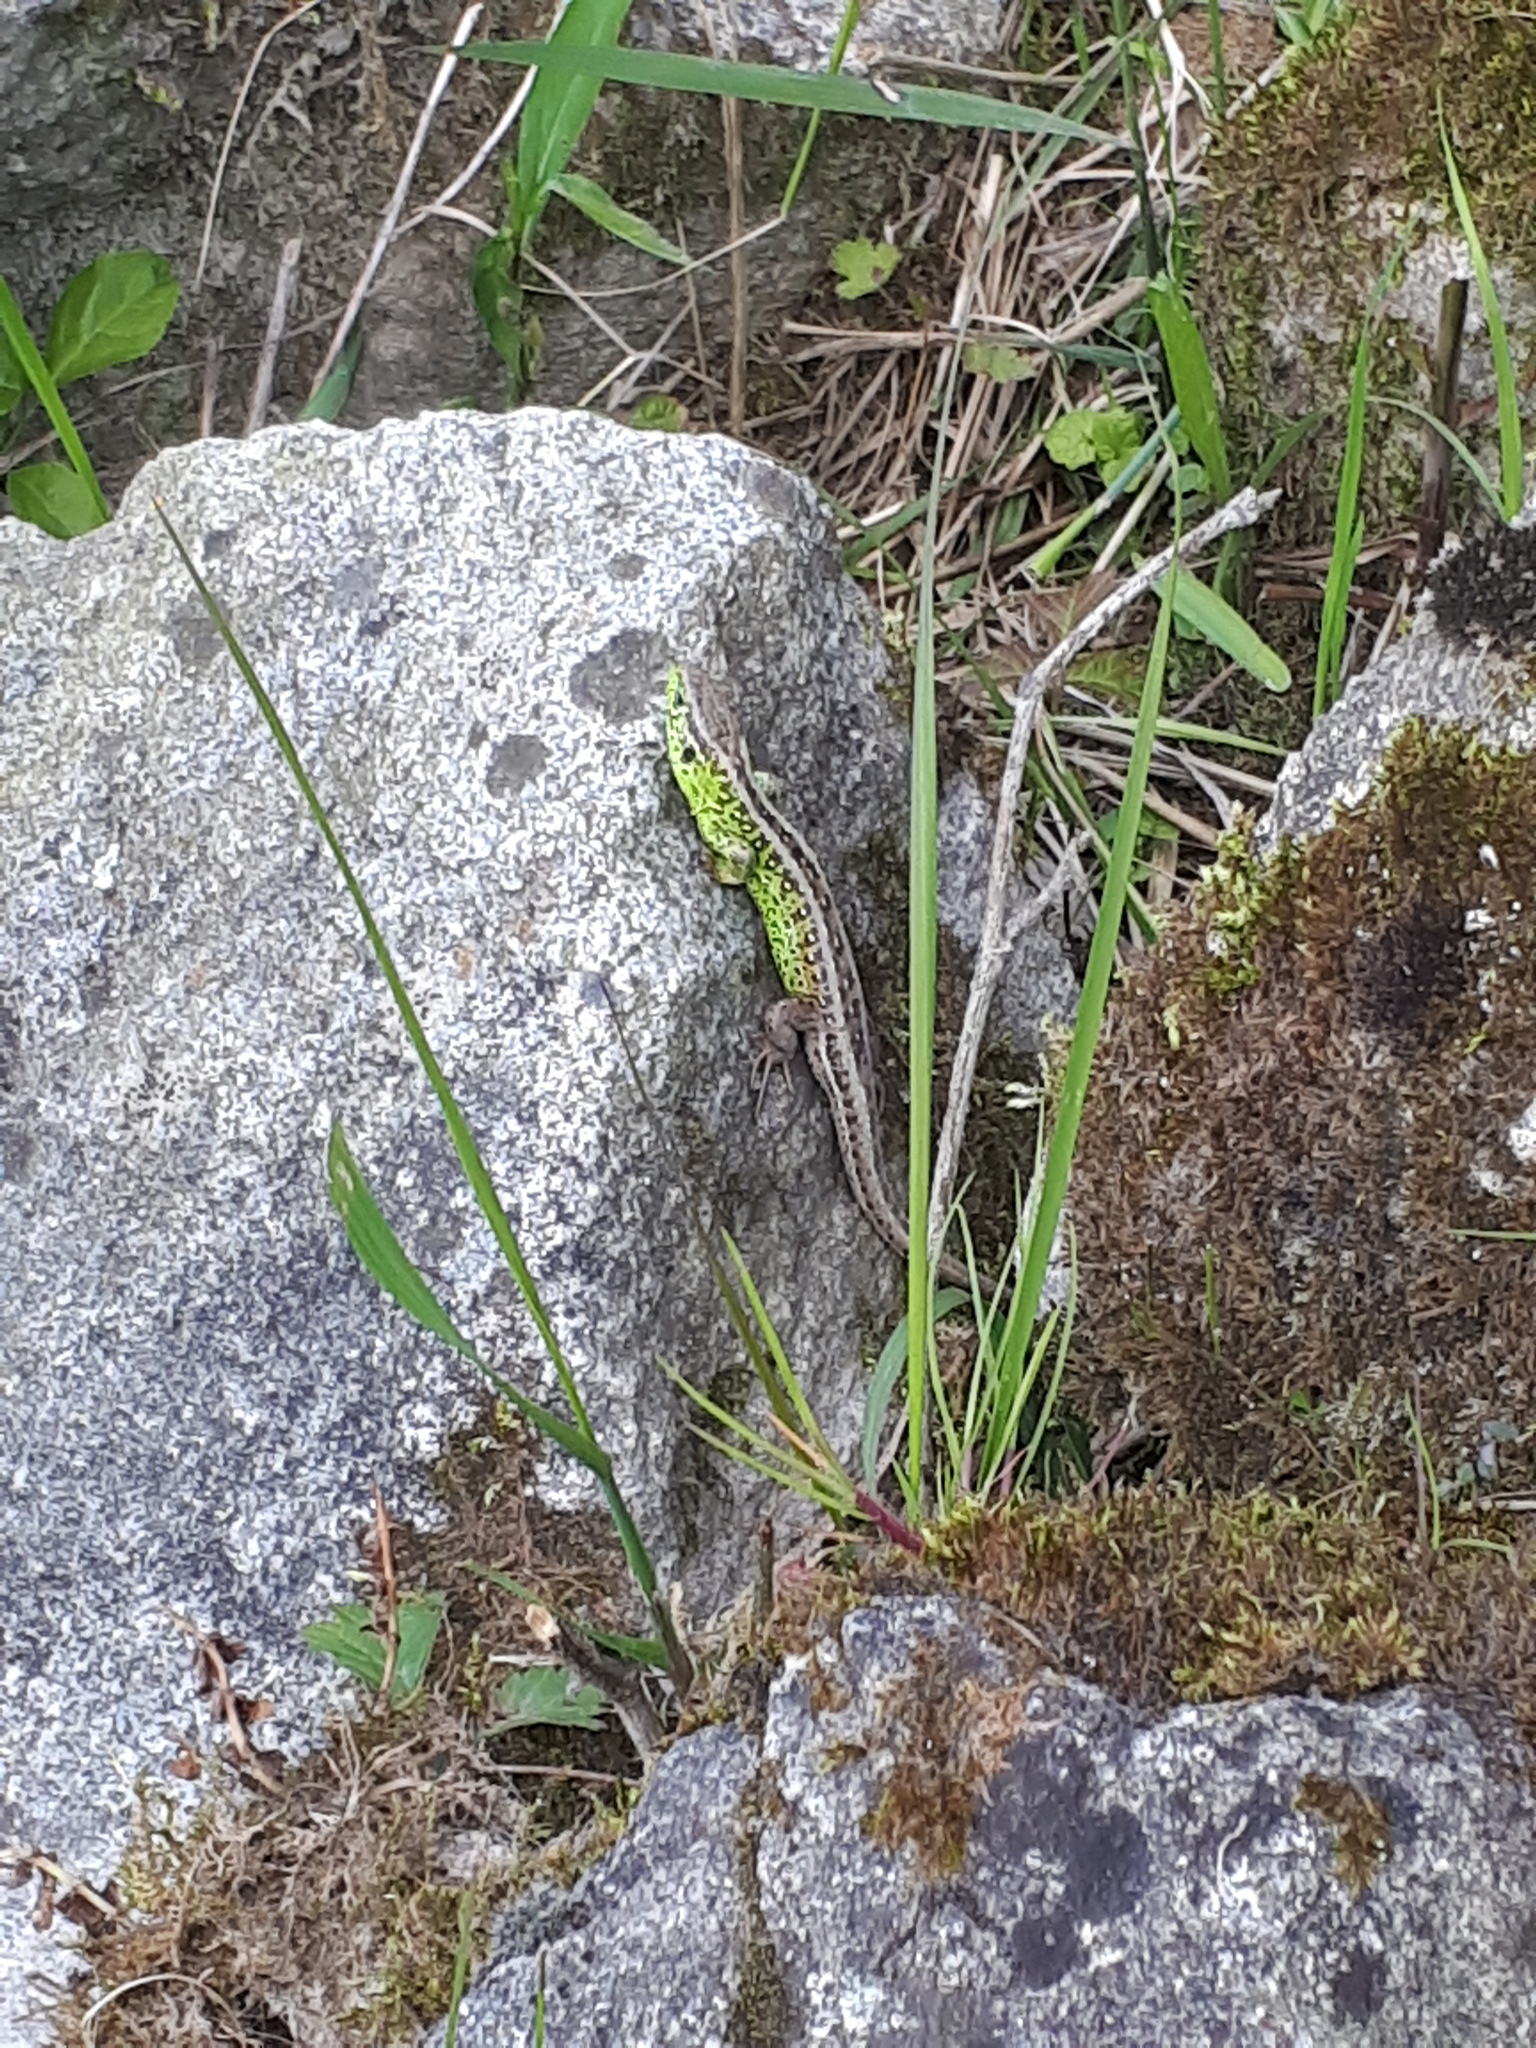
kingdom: Animalia
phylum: Chordata
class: Squamata
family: Lacertidae
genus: Lacerta
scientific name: Lacerta agilis
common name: Sand lizard
